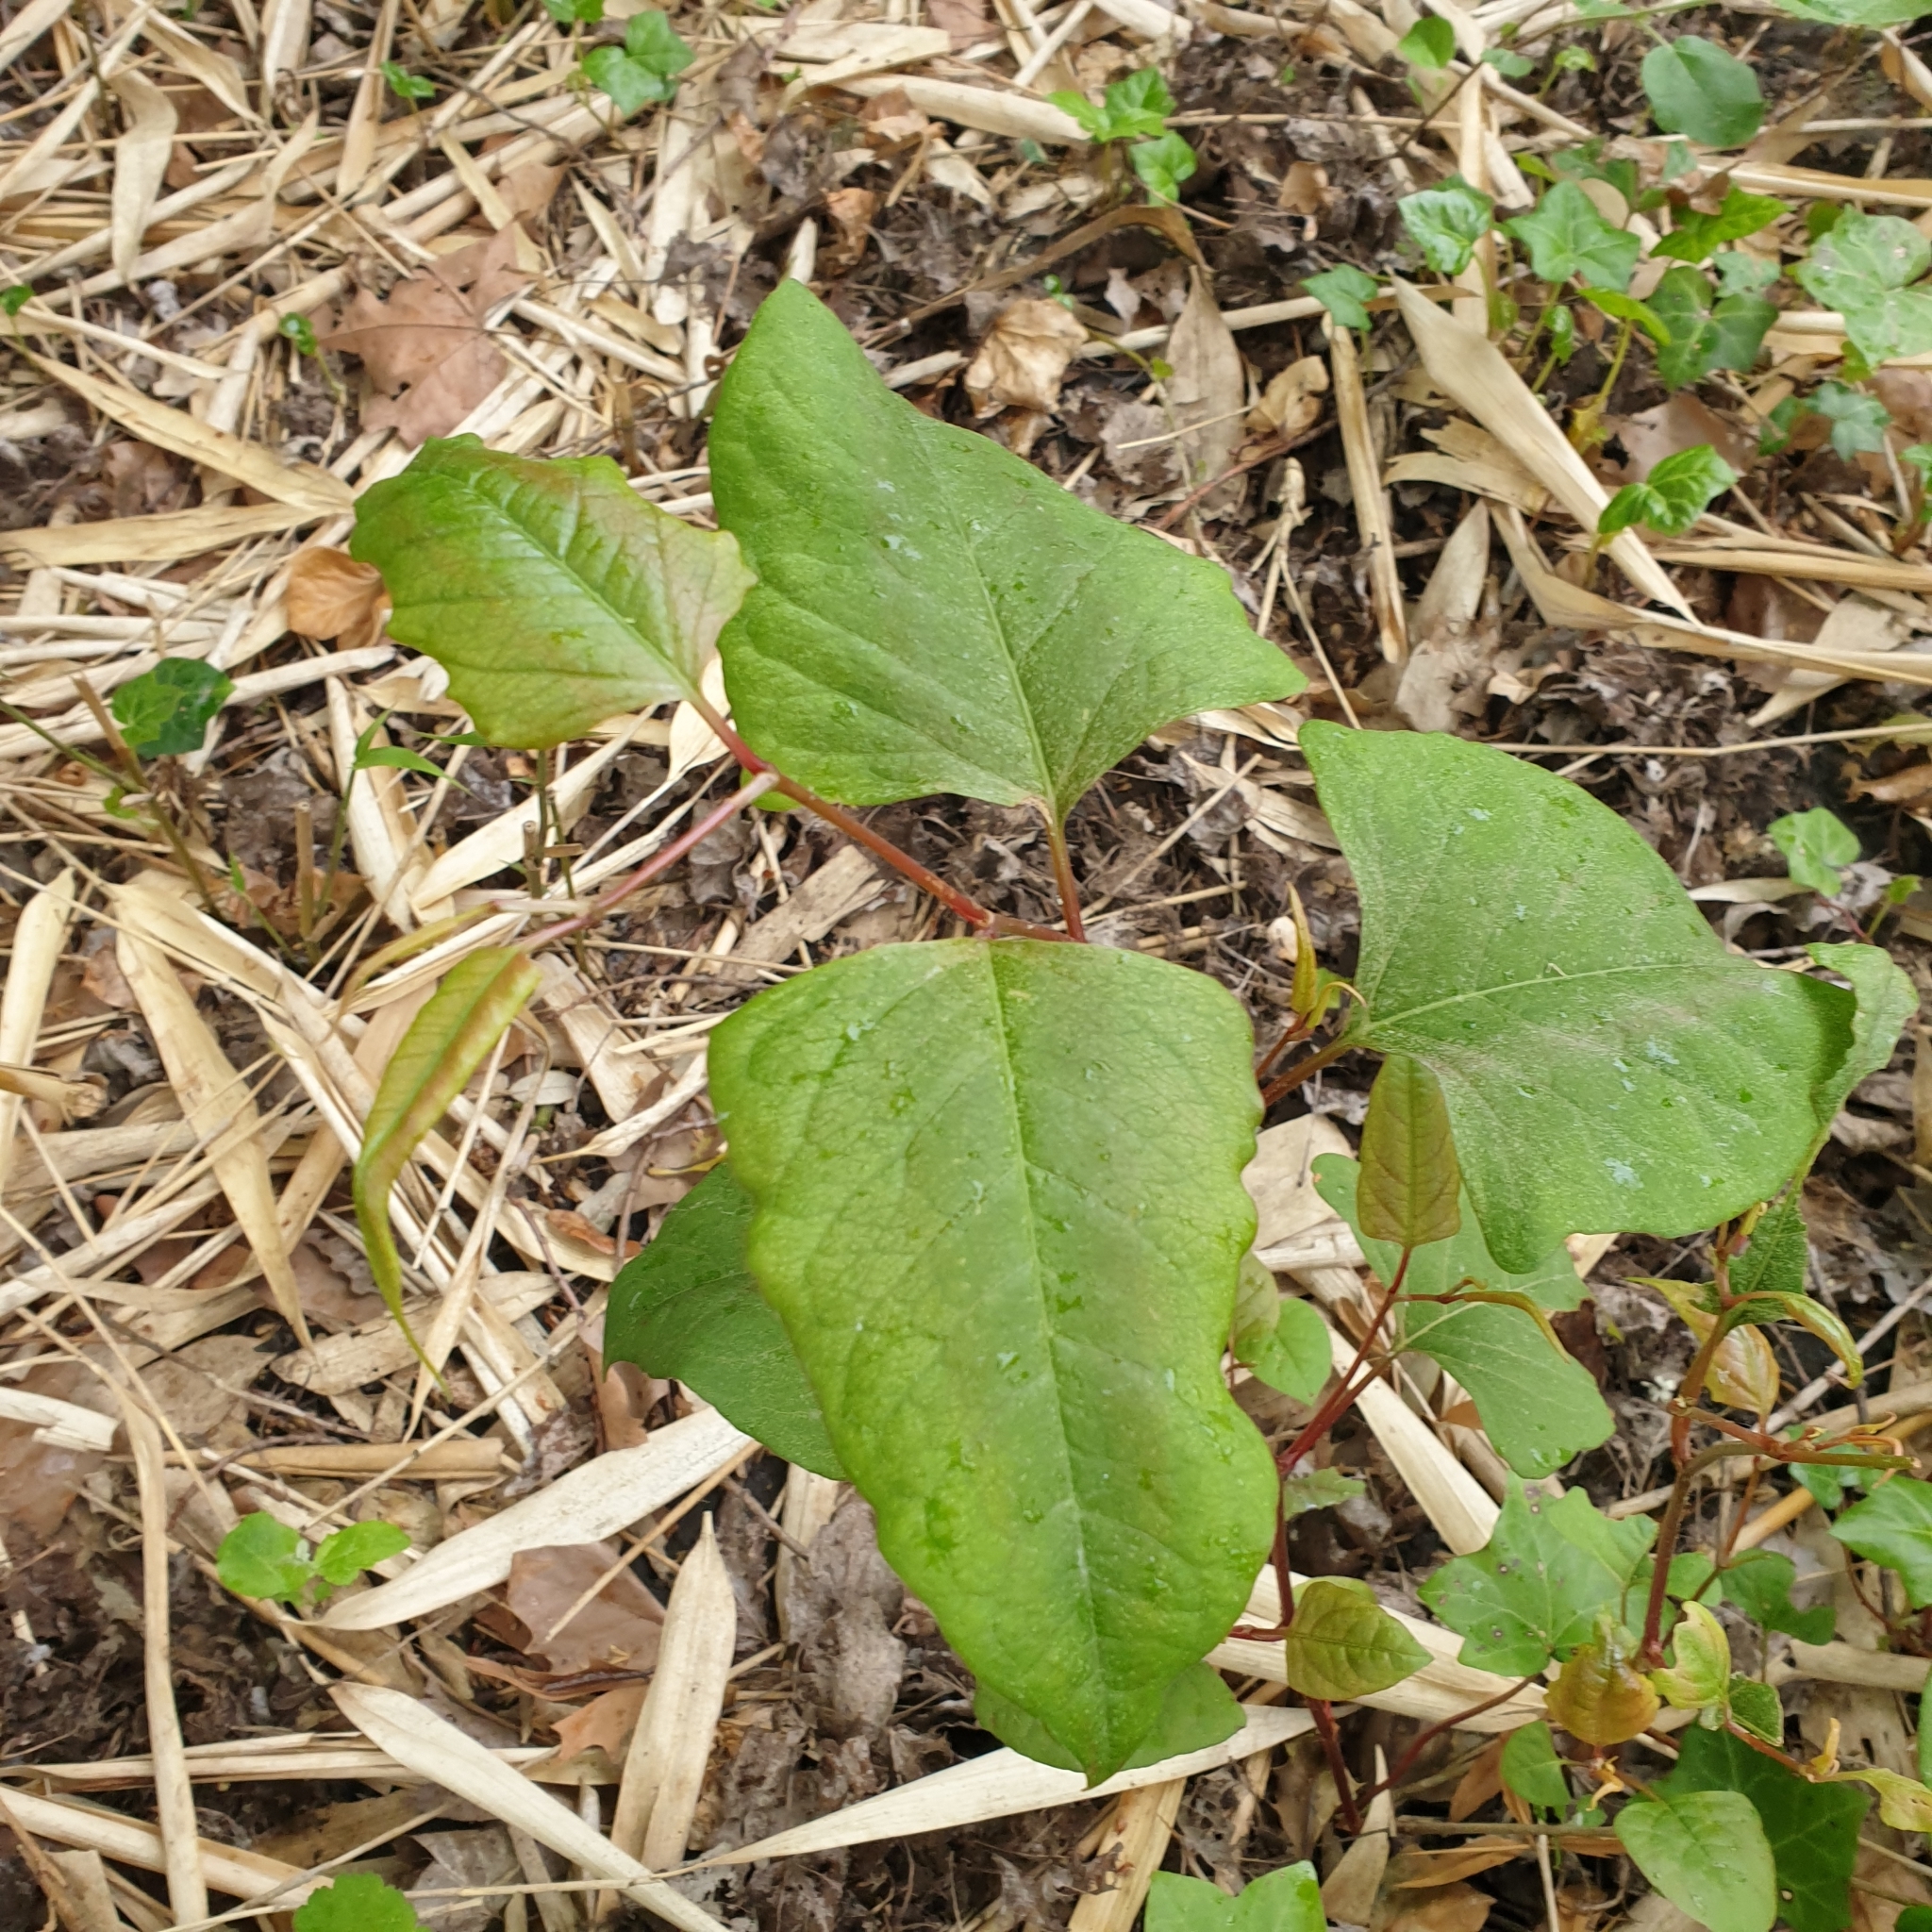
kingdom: Plantae
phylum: Tracheophyta
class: Magnoliopsida
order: Caryophyllales
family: Polygonaceae
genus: Reynoutria
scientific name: Reynoutria japonica
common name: Japanese knotweed
